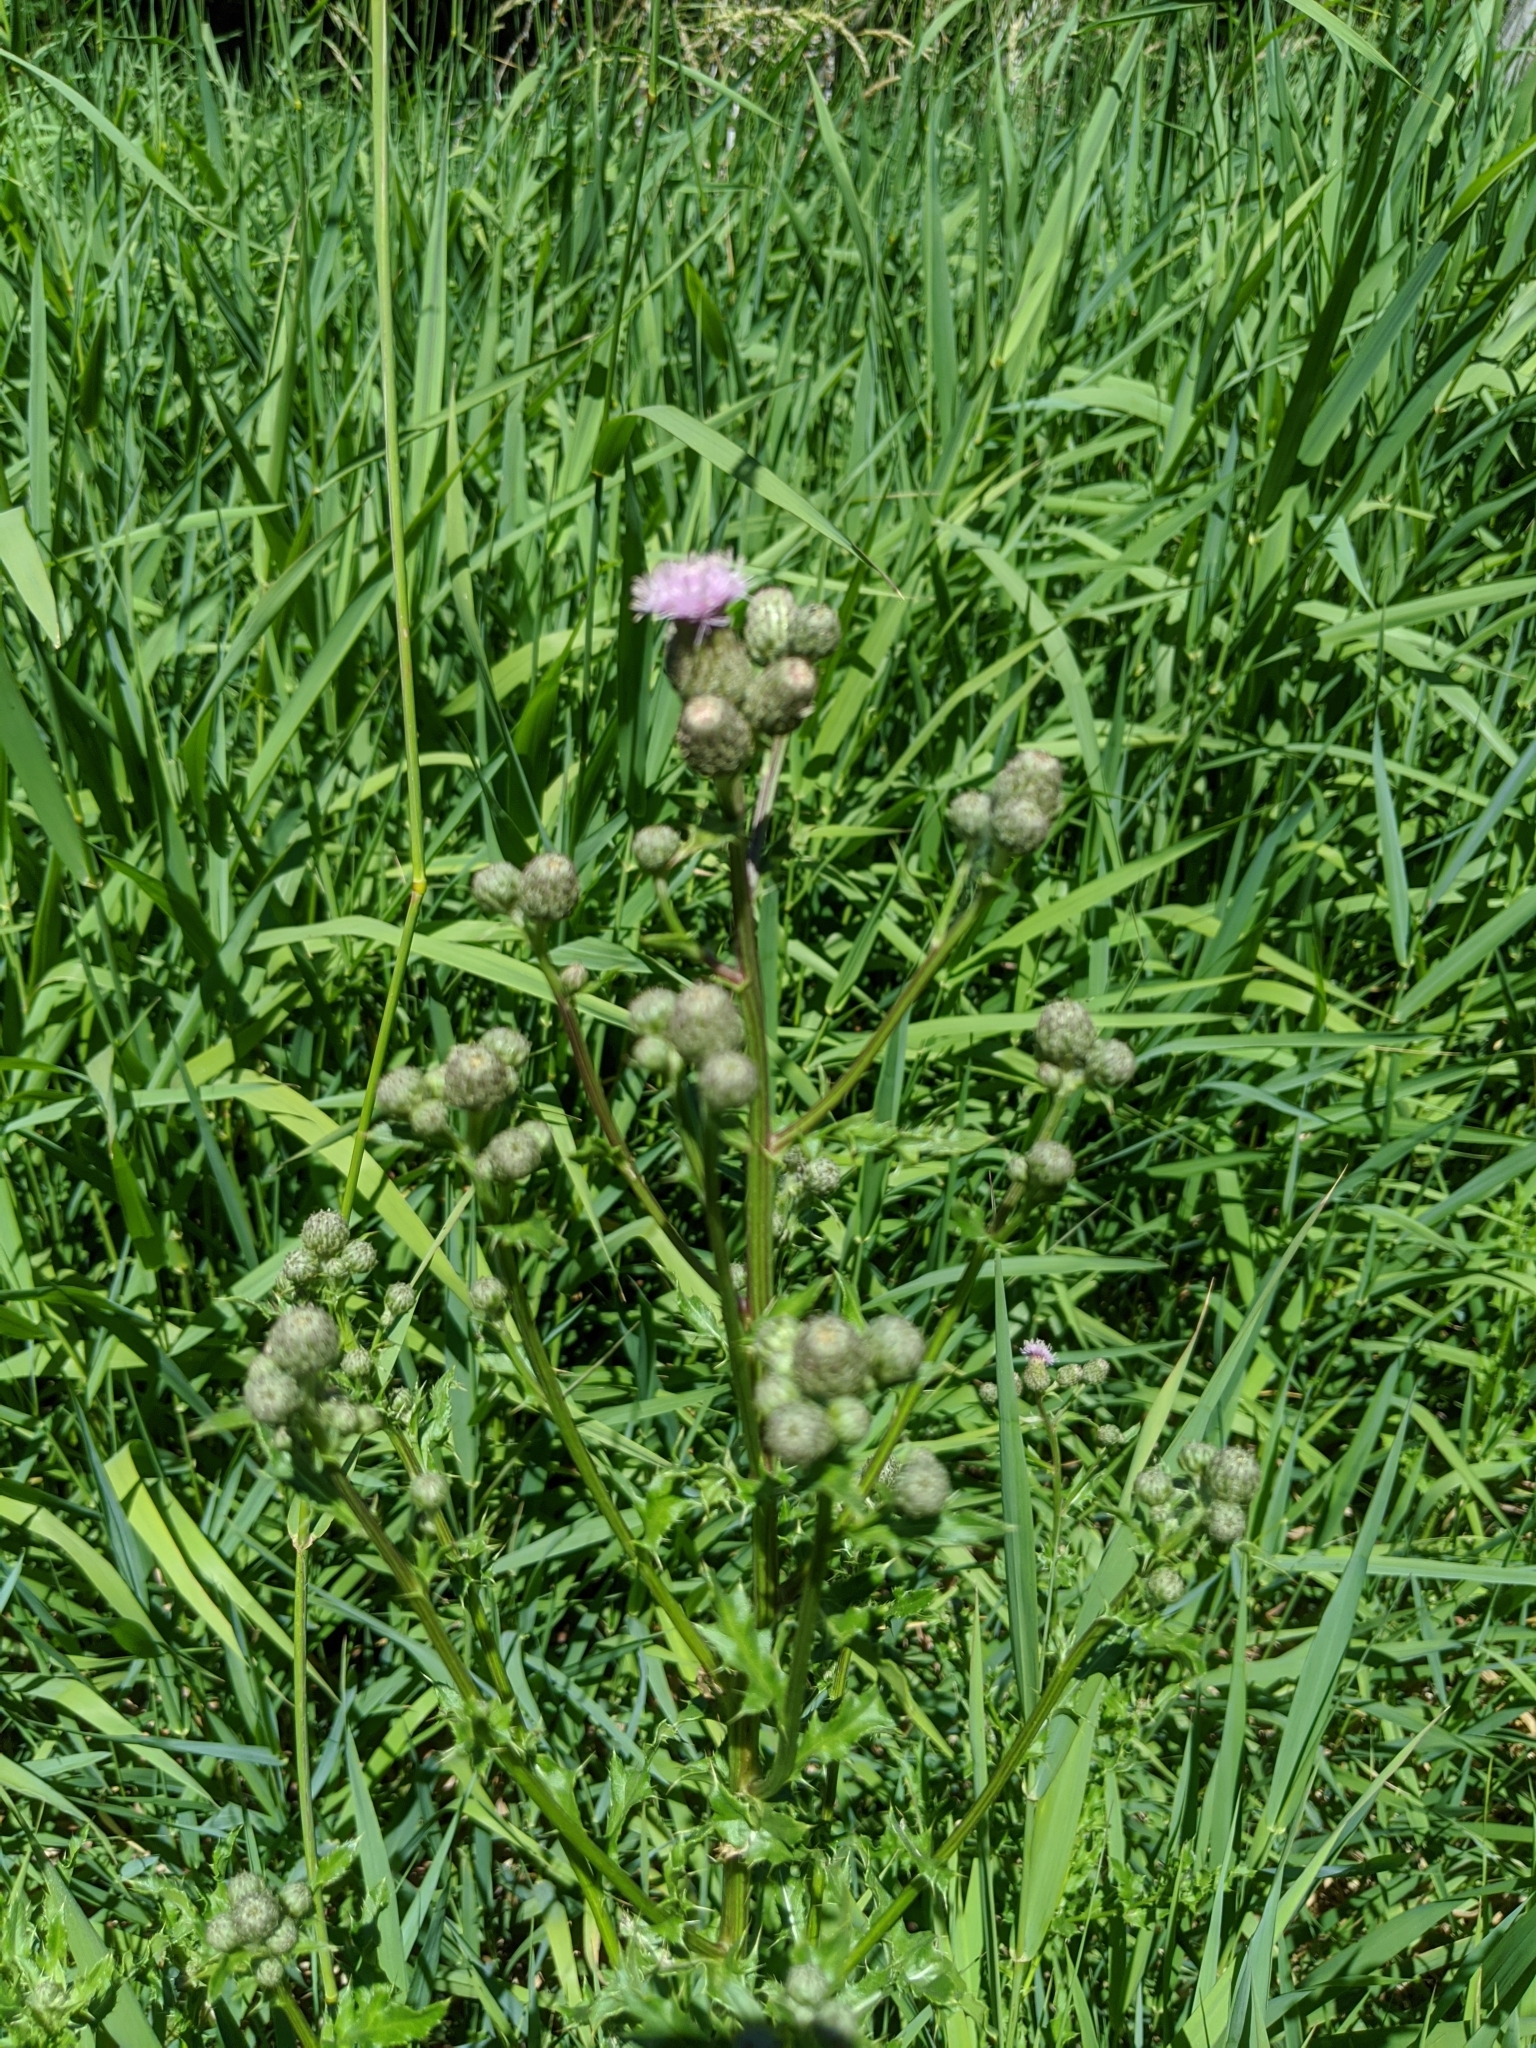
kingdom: Plantae
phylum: Tracheophyta
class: Magnoliopsida
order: Asterales
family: Asteraceae
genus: Cirsium
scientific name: Cirsium arvense
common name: Creeping thistle
